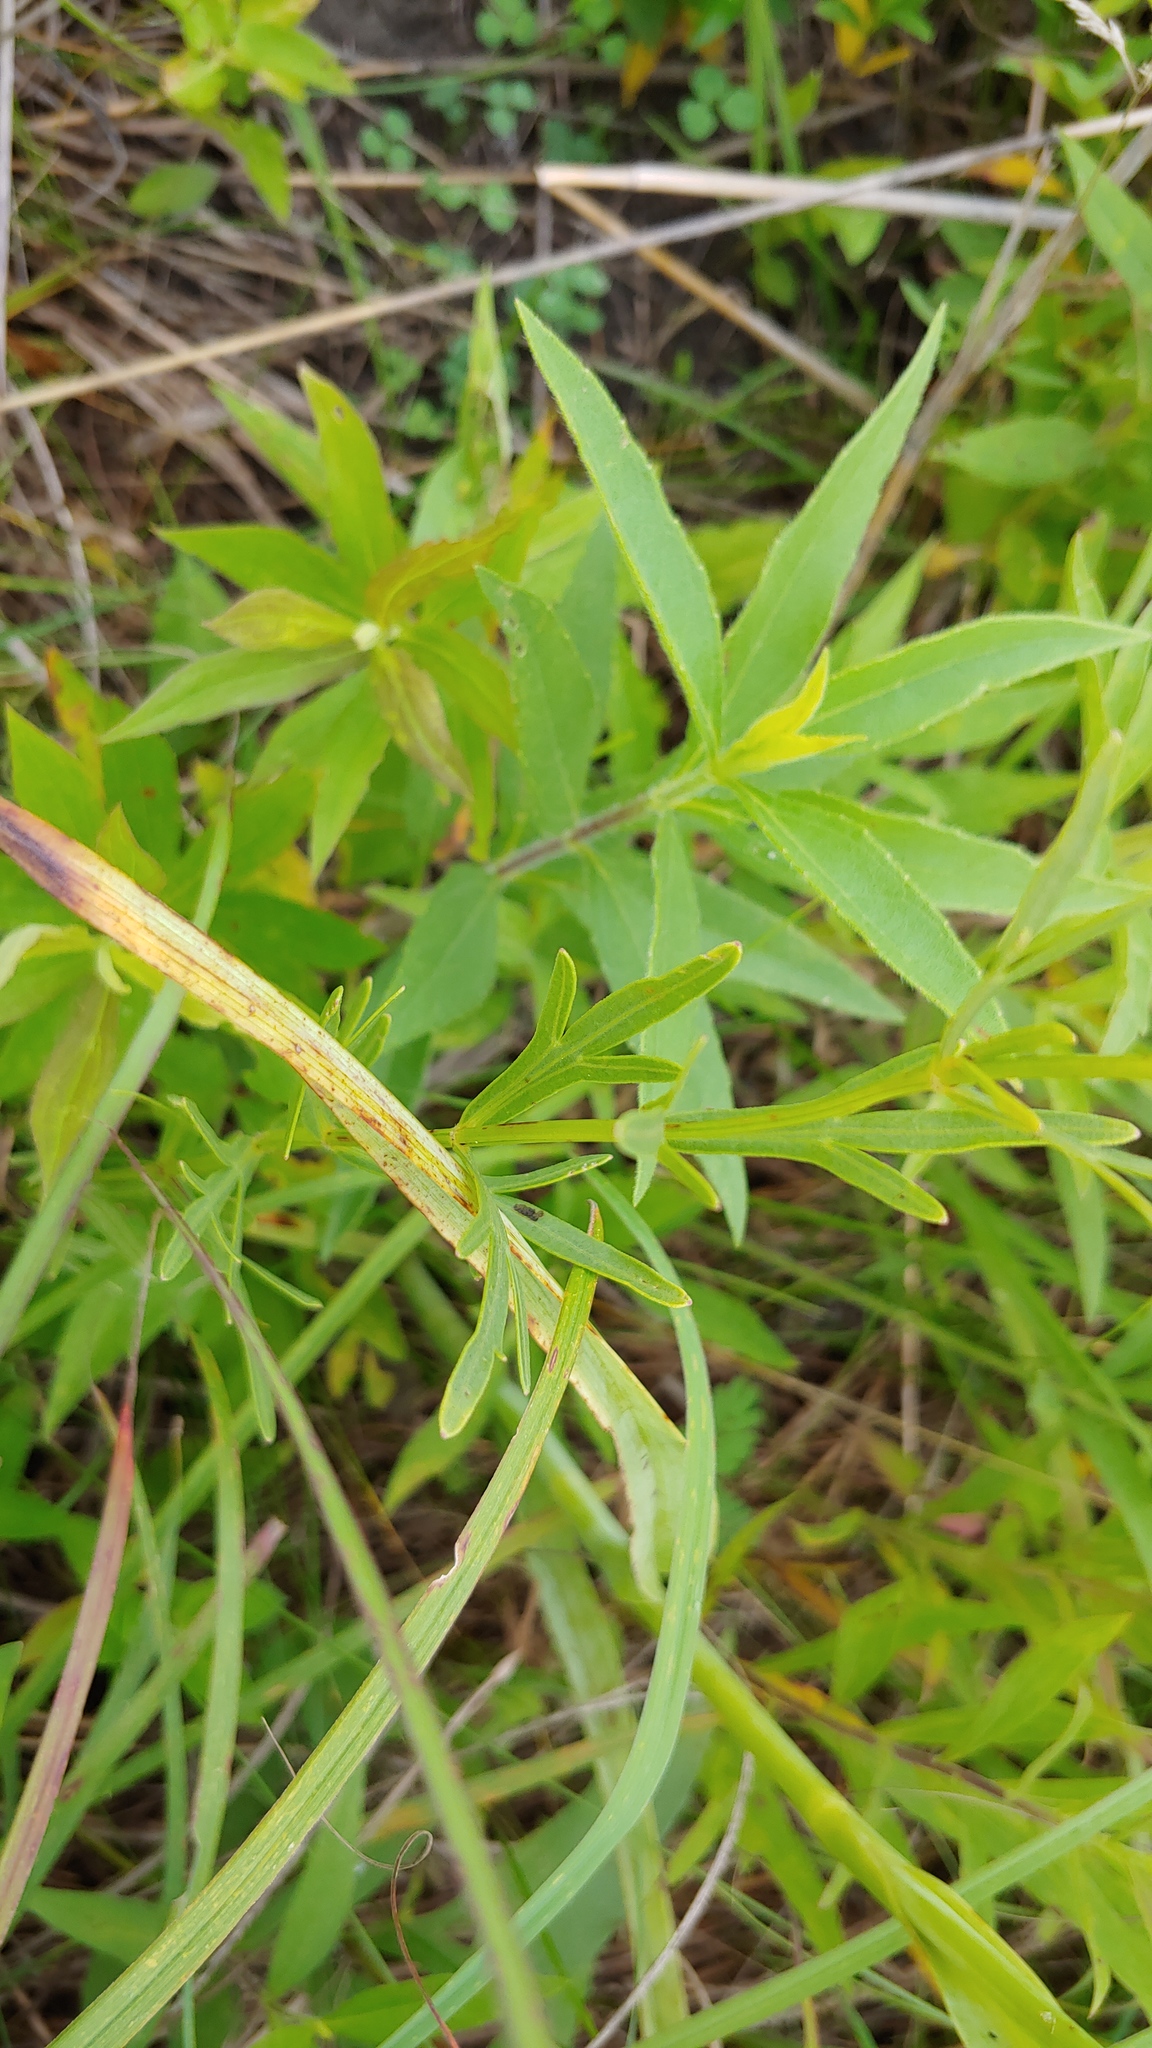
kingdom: Plantae
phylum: Tracheophyta
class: Magnoliopsida
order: Asterales
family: Asteraceae
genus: Coreopsis
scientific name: Coreopsis palmata
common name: Prairie coreopsis
